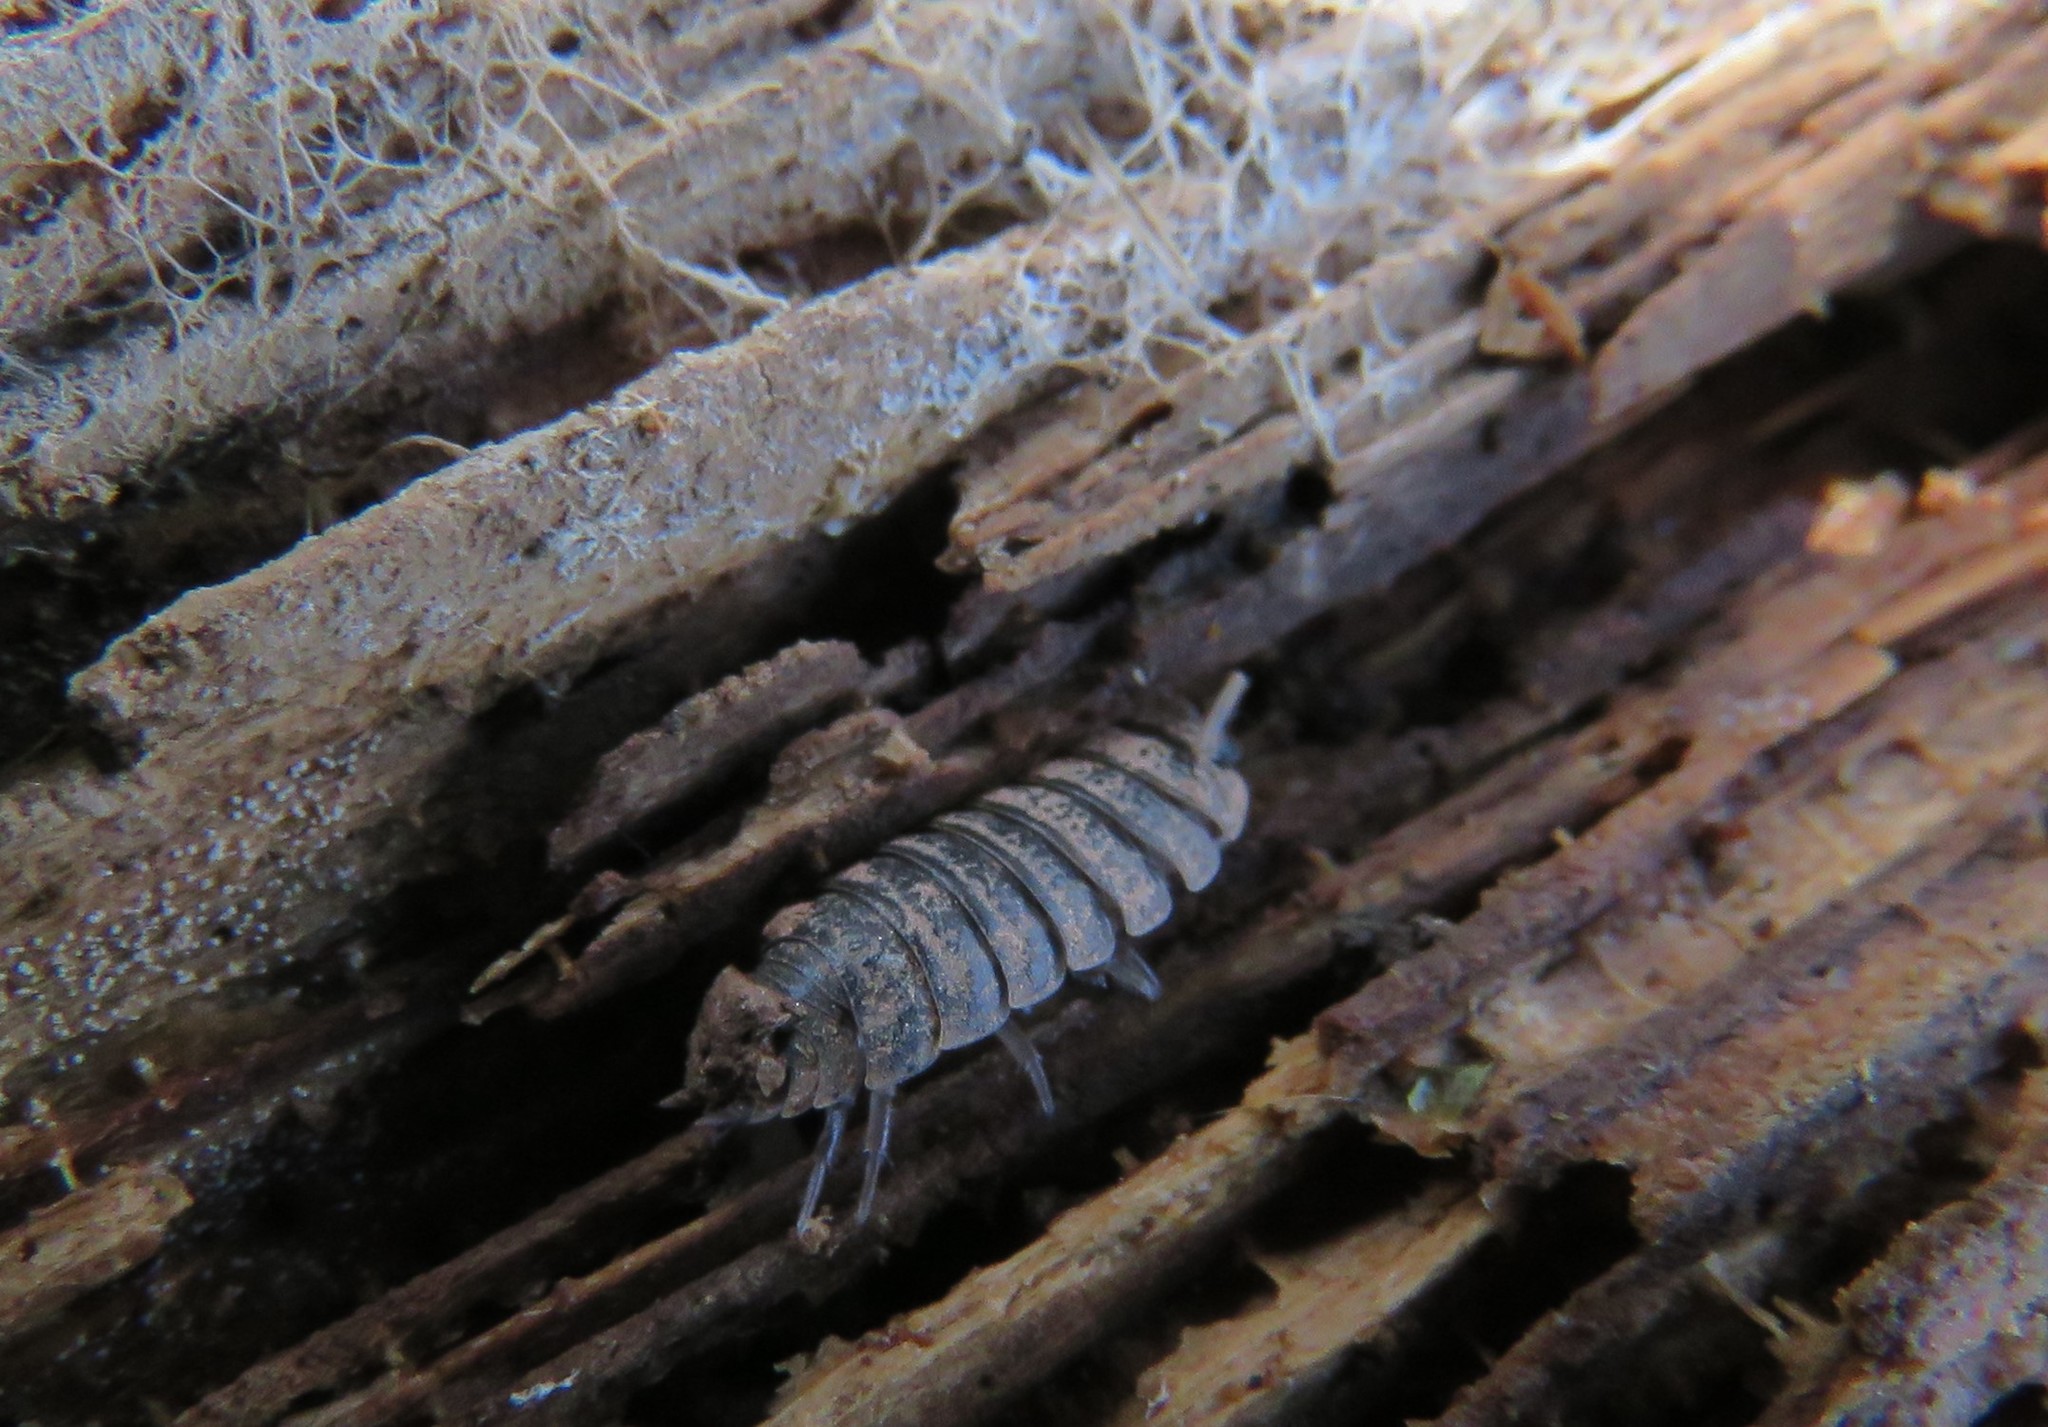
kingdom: Animalia
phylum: Arthropoda
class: Malacostraca
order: Isopoda
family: Porcellionidae
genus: Porcellio
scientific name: Porcellio scaber
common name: Common rough woodlouse
